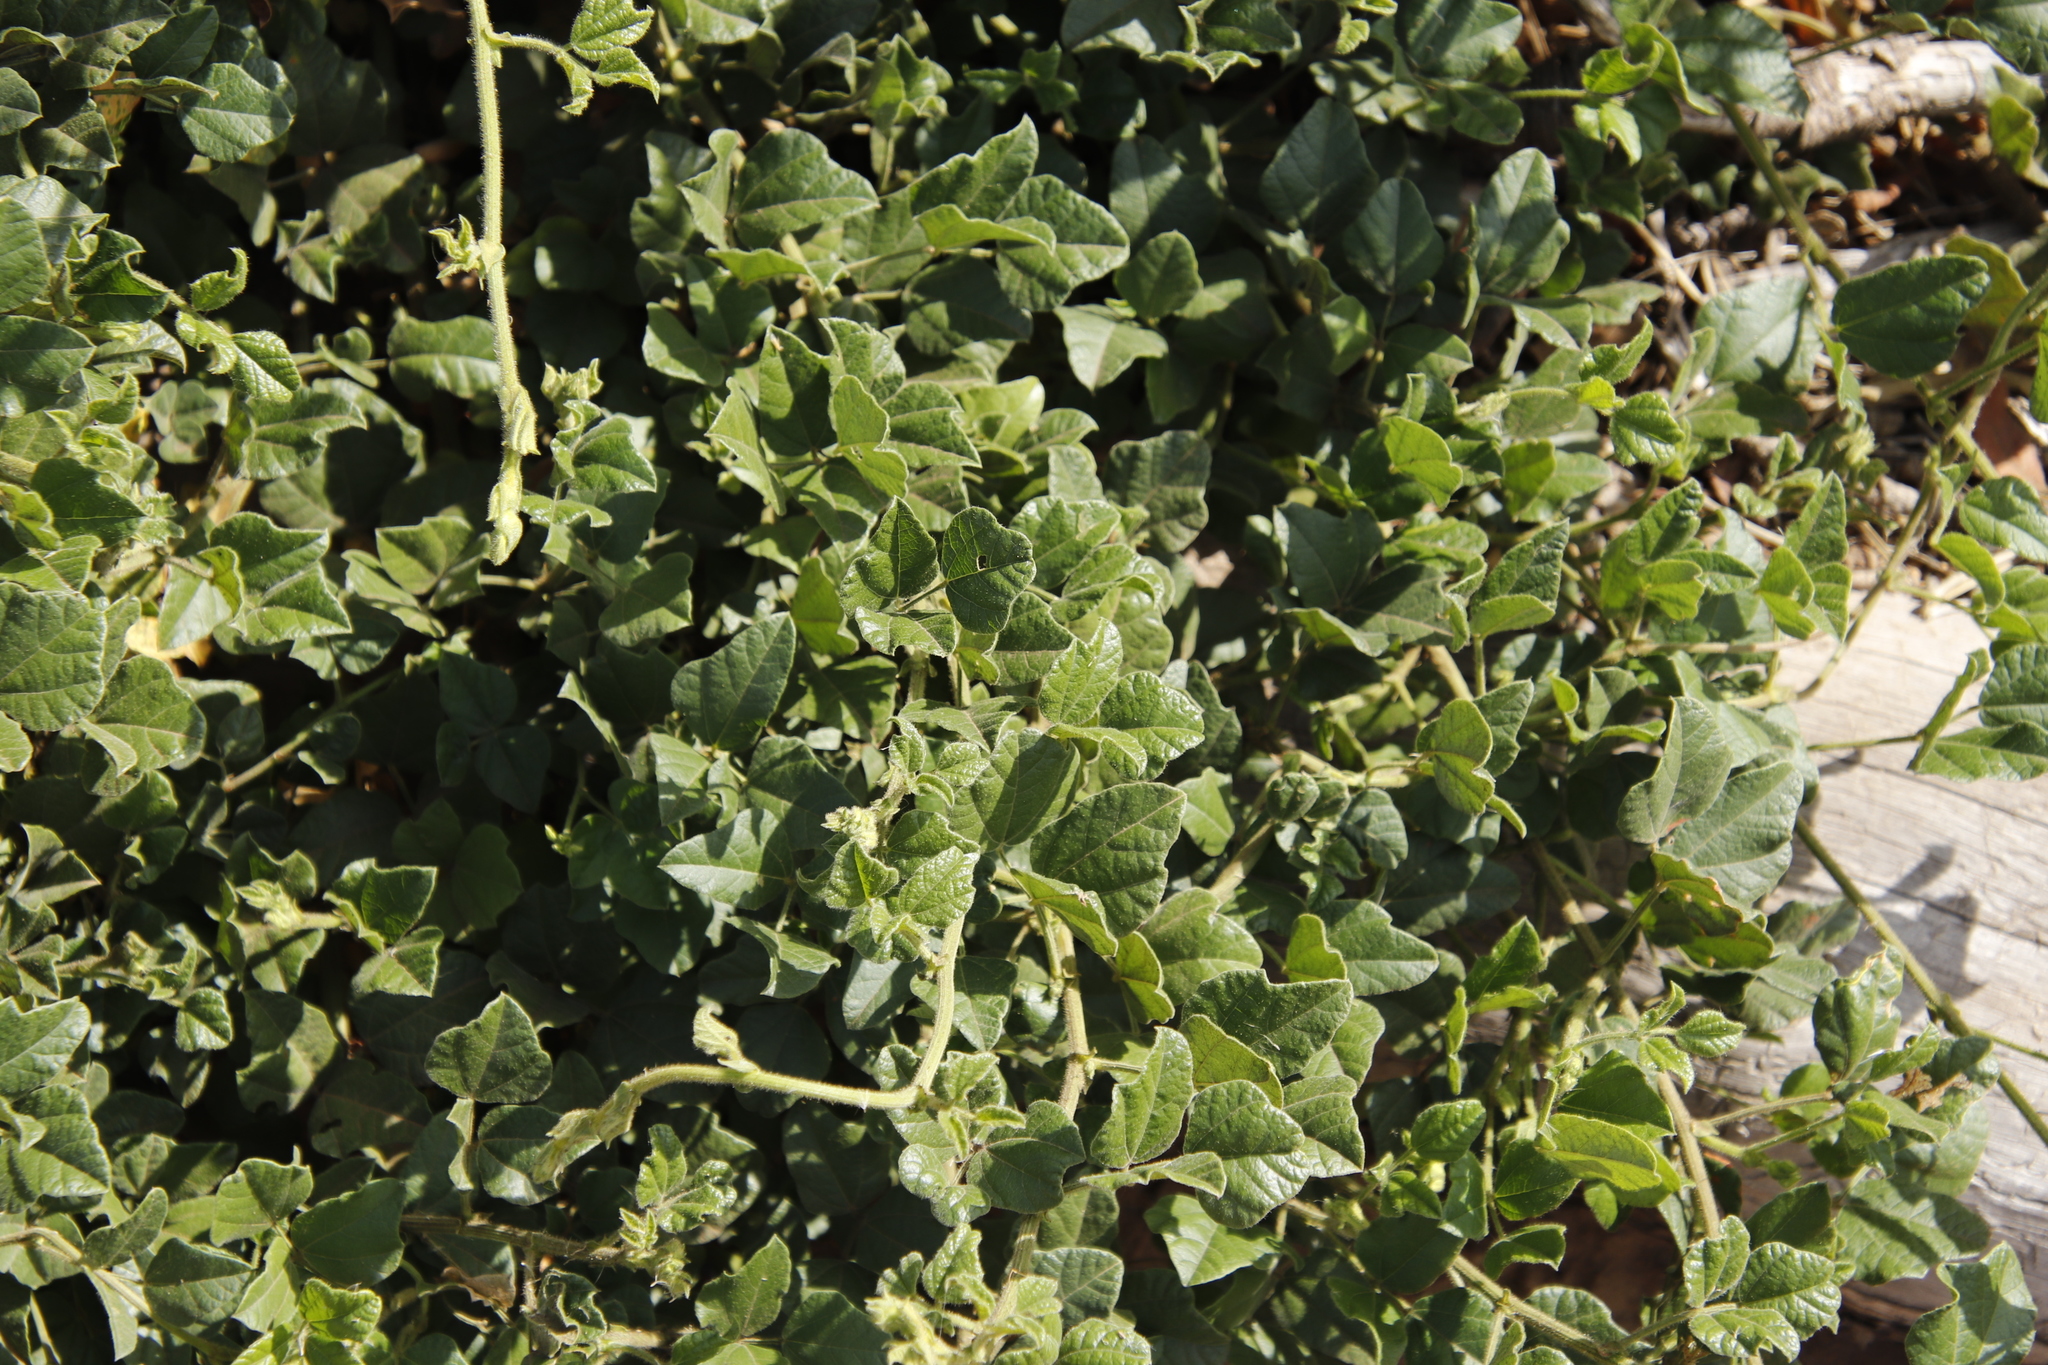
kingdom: Plantae
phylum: Tracheophyta
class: Magnoliopsida
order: Fabales
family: Fabaceae
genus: Bolusafra
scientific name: Bolusafra bituminosa
